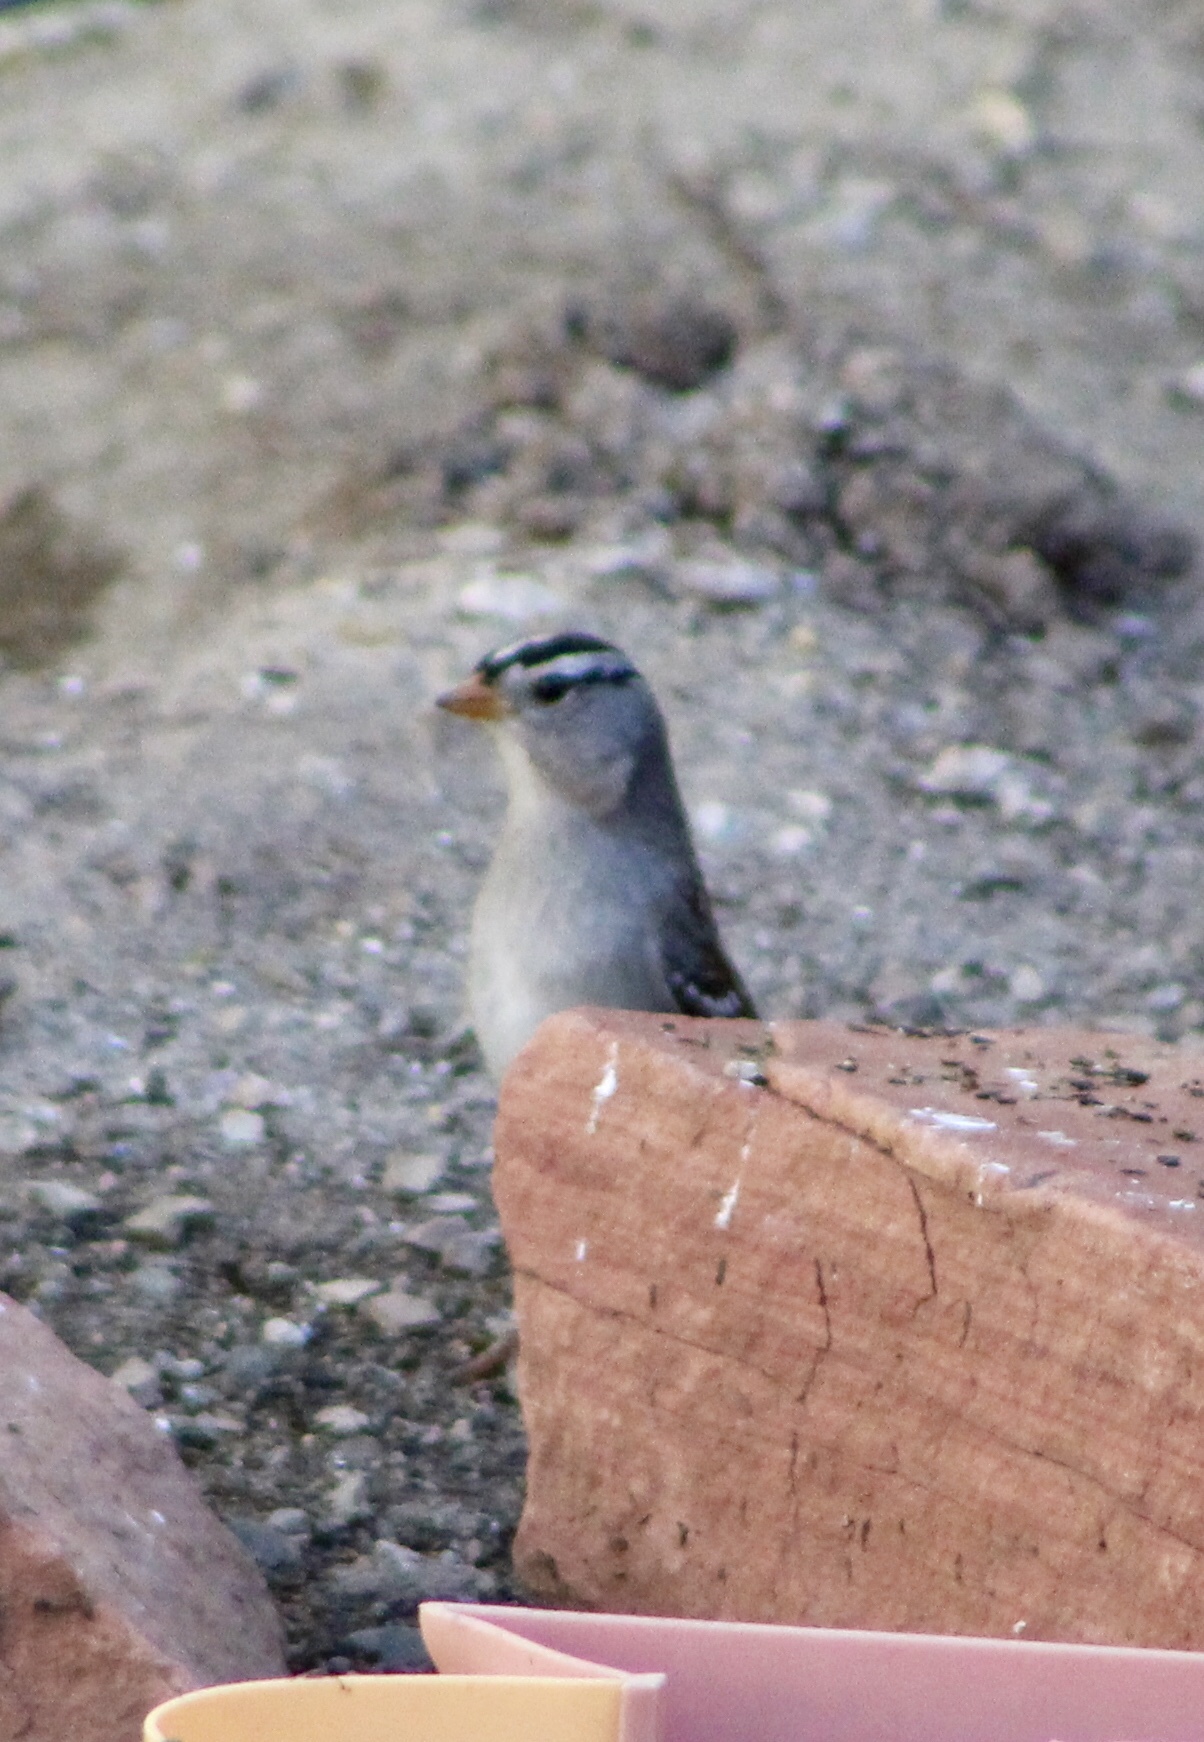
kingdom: Animalia
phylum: Chordata
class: Aves
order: Passeriformes
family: Passerellidae
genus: Zonotrichia
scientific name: Zonotrichia leucophrys
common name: White-crowned sparrow
